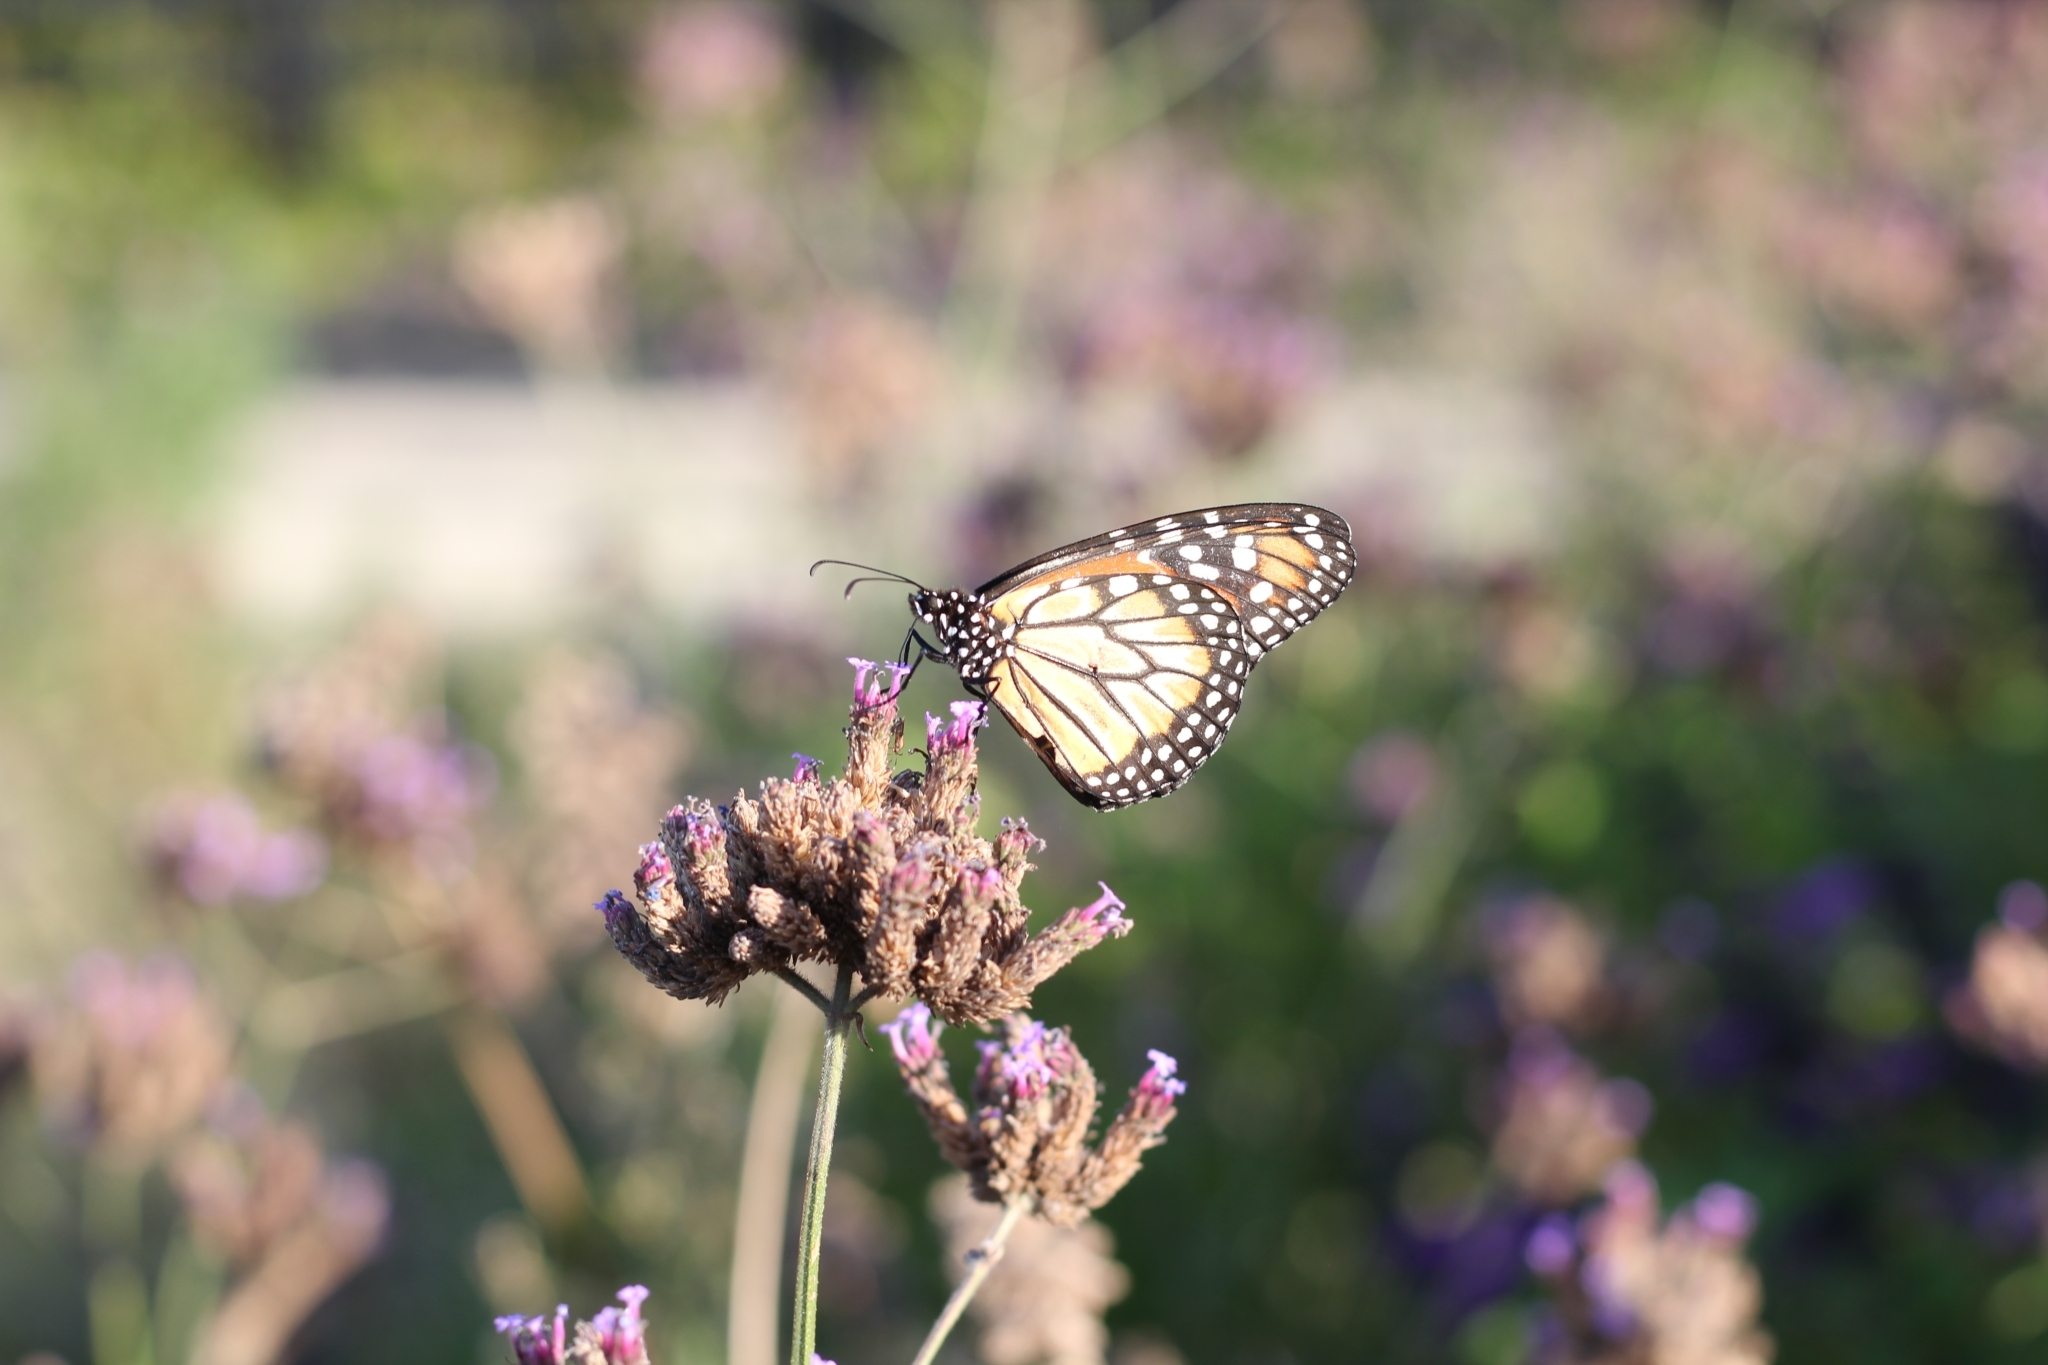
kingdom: Animalia
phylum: Arthropoda
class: Insecta
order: Lepidoptera
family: Nymphalidae
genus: Danaus
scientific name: Danaus erippus
